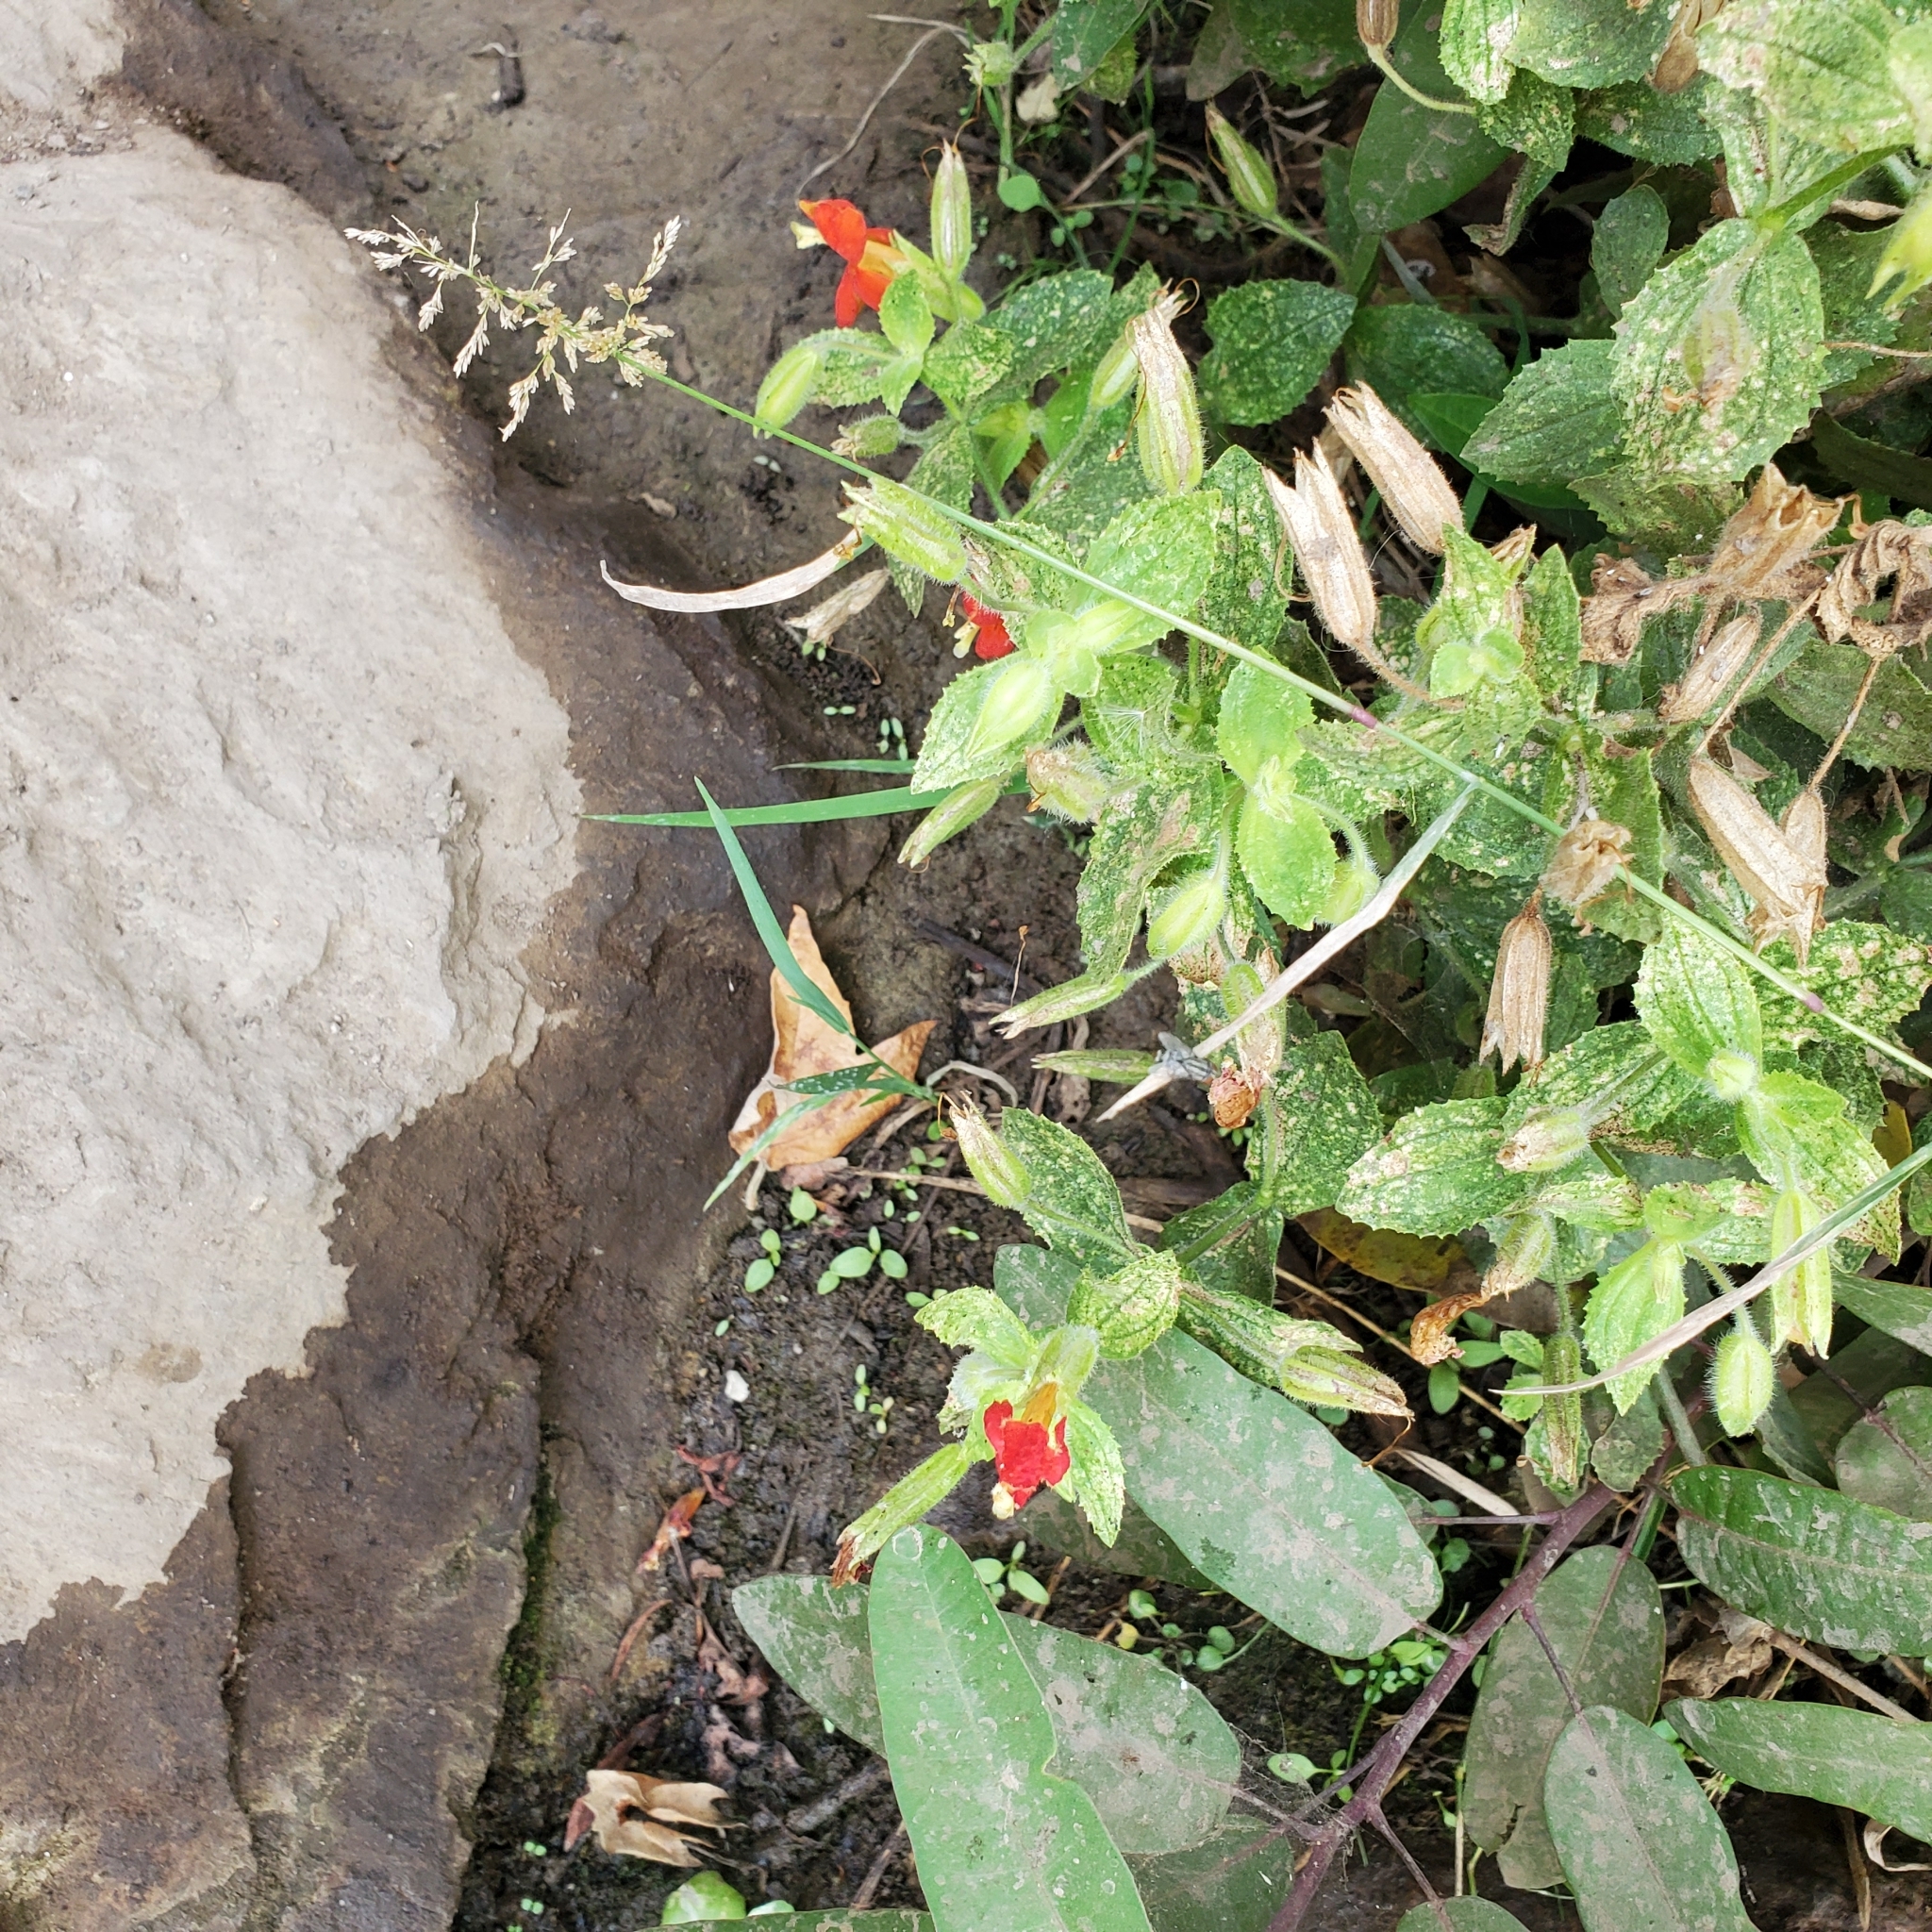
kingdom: Plantae
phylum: Tracheophyta
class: Magnoliopsida
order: Lamiales
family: Phrymaceae
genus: Erythranthe
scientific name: Erythranthe cardinalis
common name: Scarlet monkey-flower
